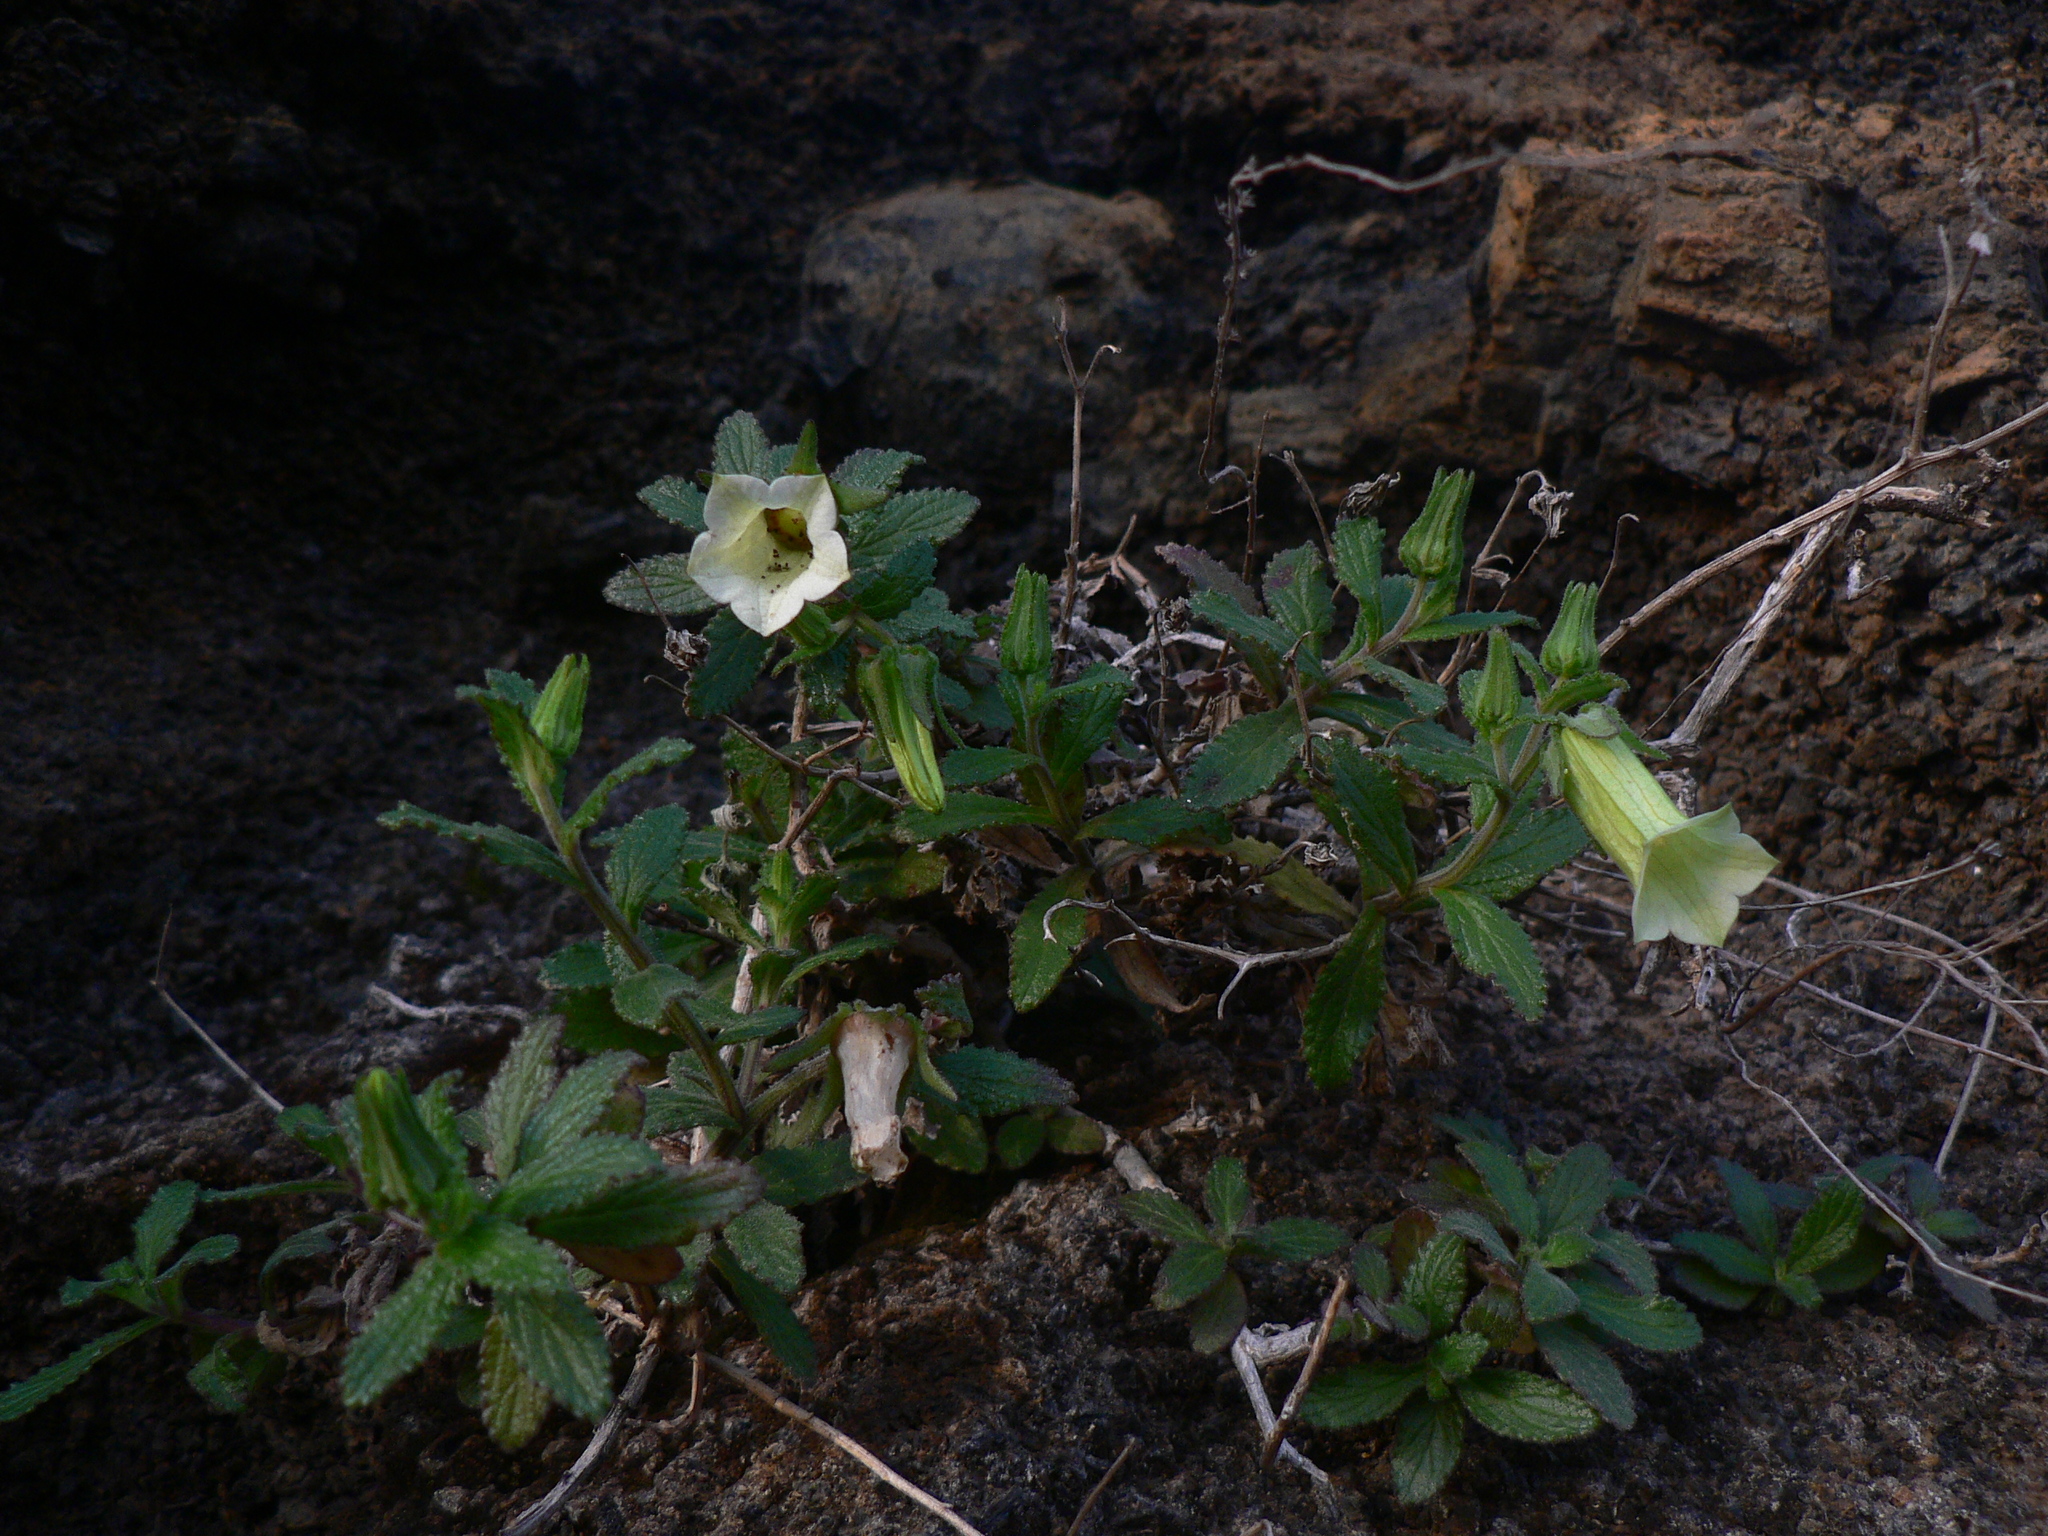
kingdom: Plantae
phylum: Tracheophyta
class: Magnoliopsida
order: Asterales
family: Campanulaceae
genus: Campanula
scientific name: Campanula bravensis
